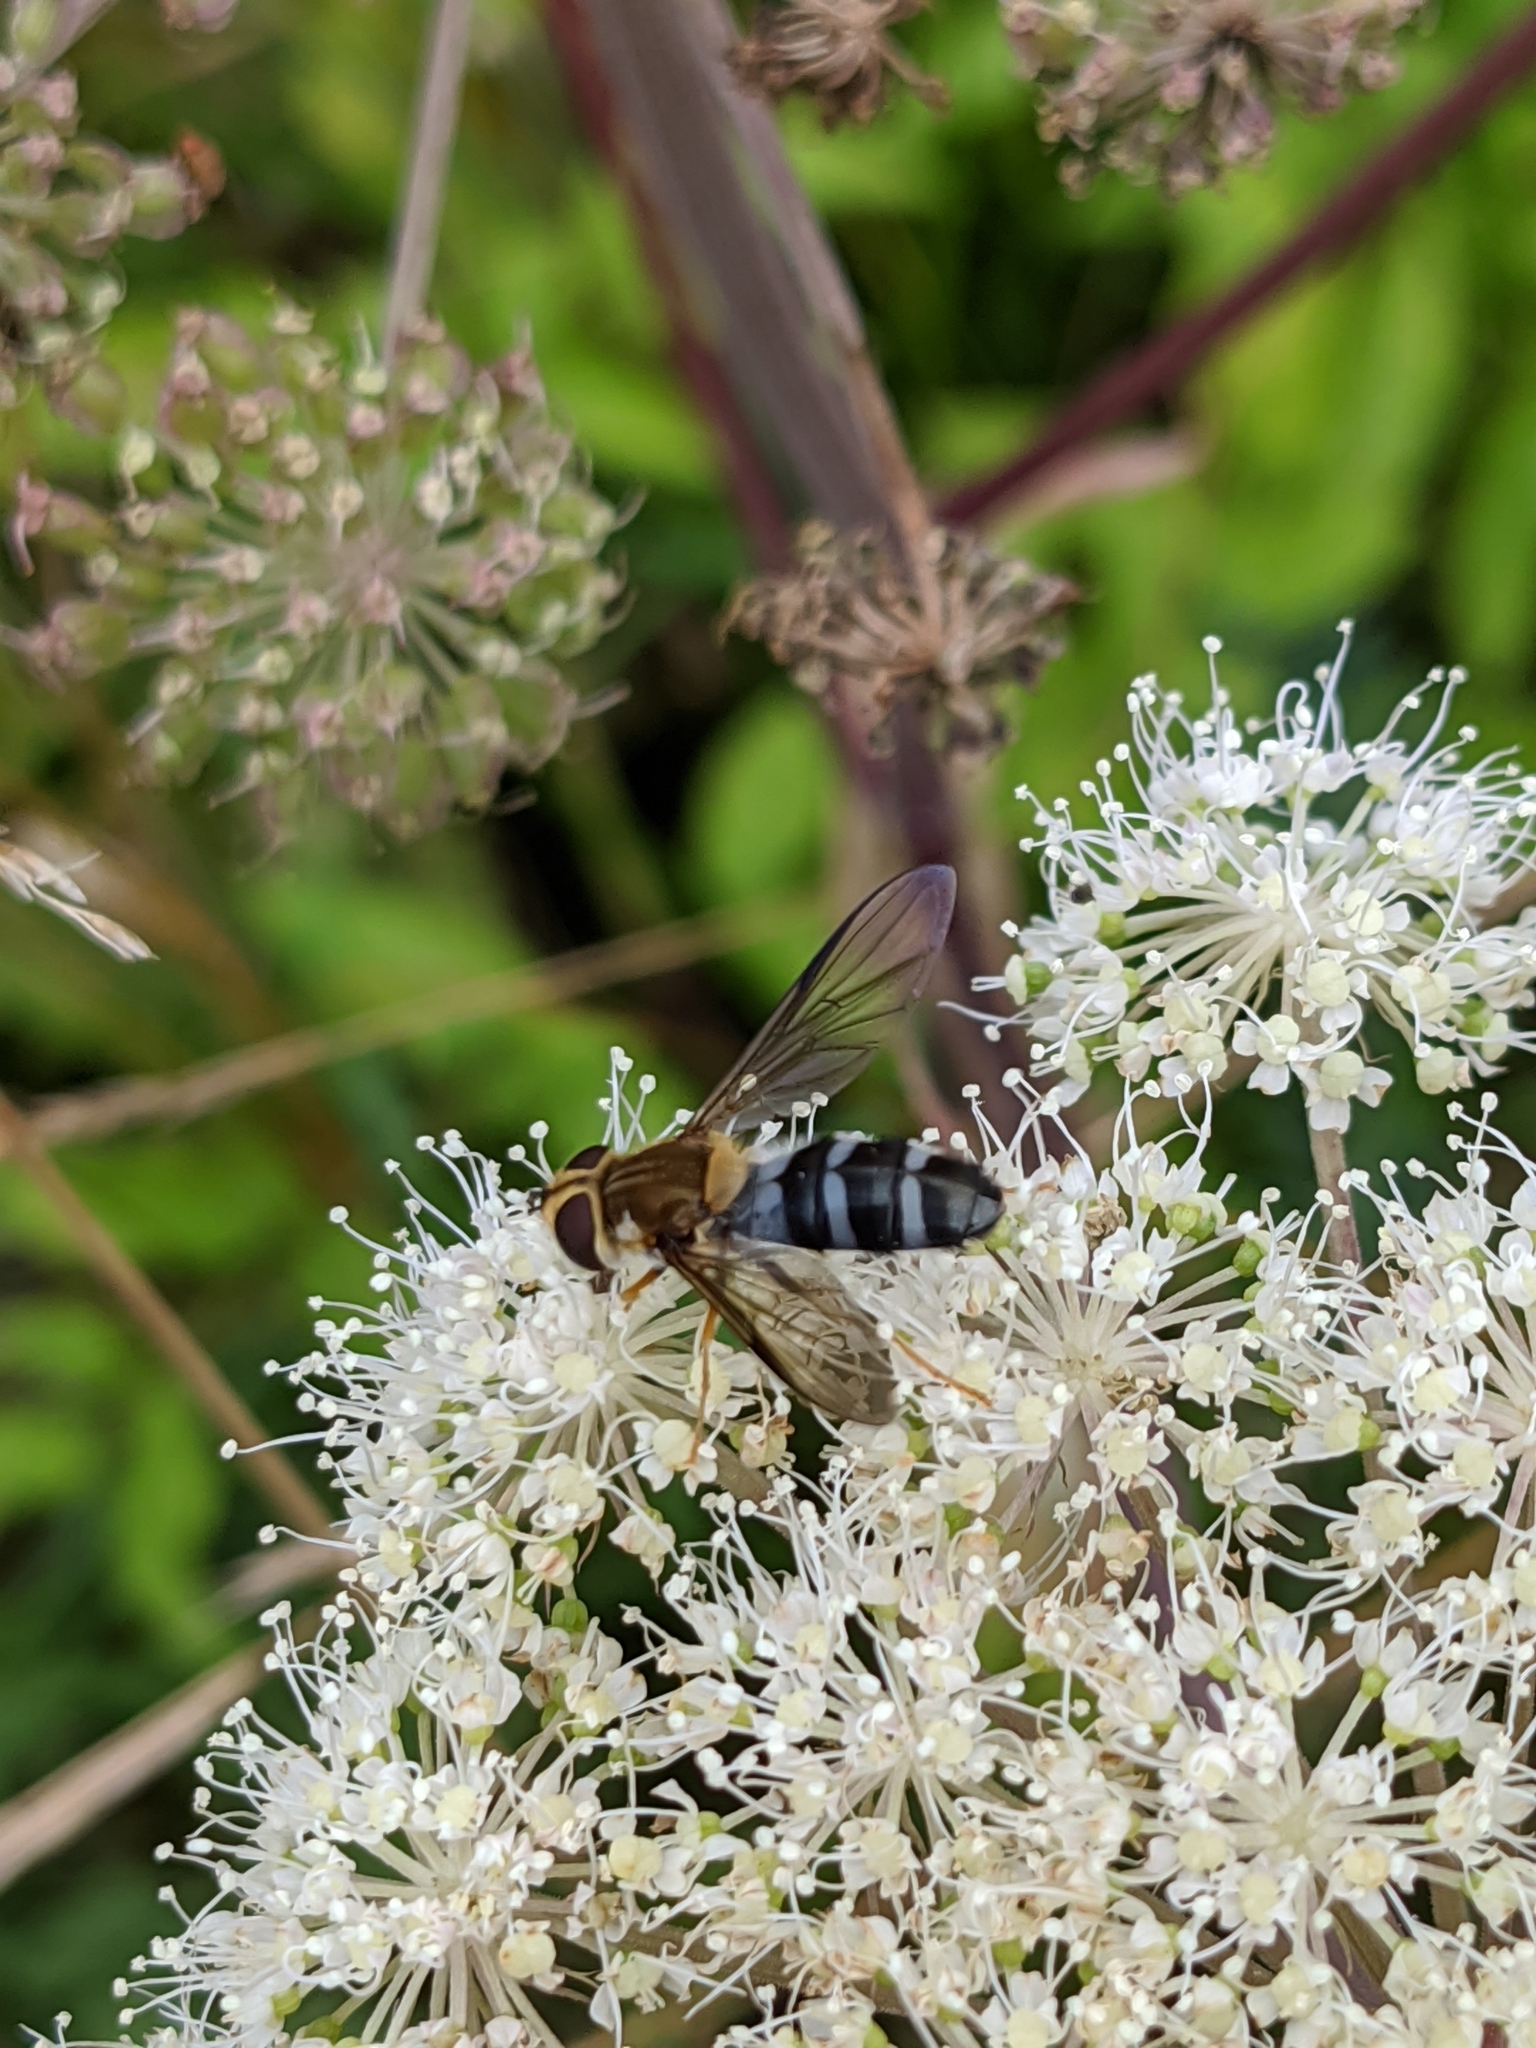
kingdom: Animalia
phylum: Arthropoda
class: Insecta
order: Diptera
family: Syrphidae
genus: Leucozona
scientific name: Leucozona glaucia
